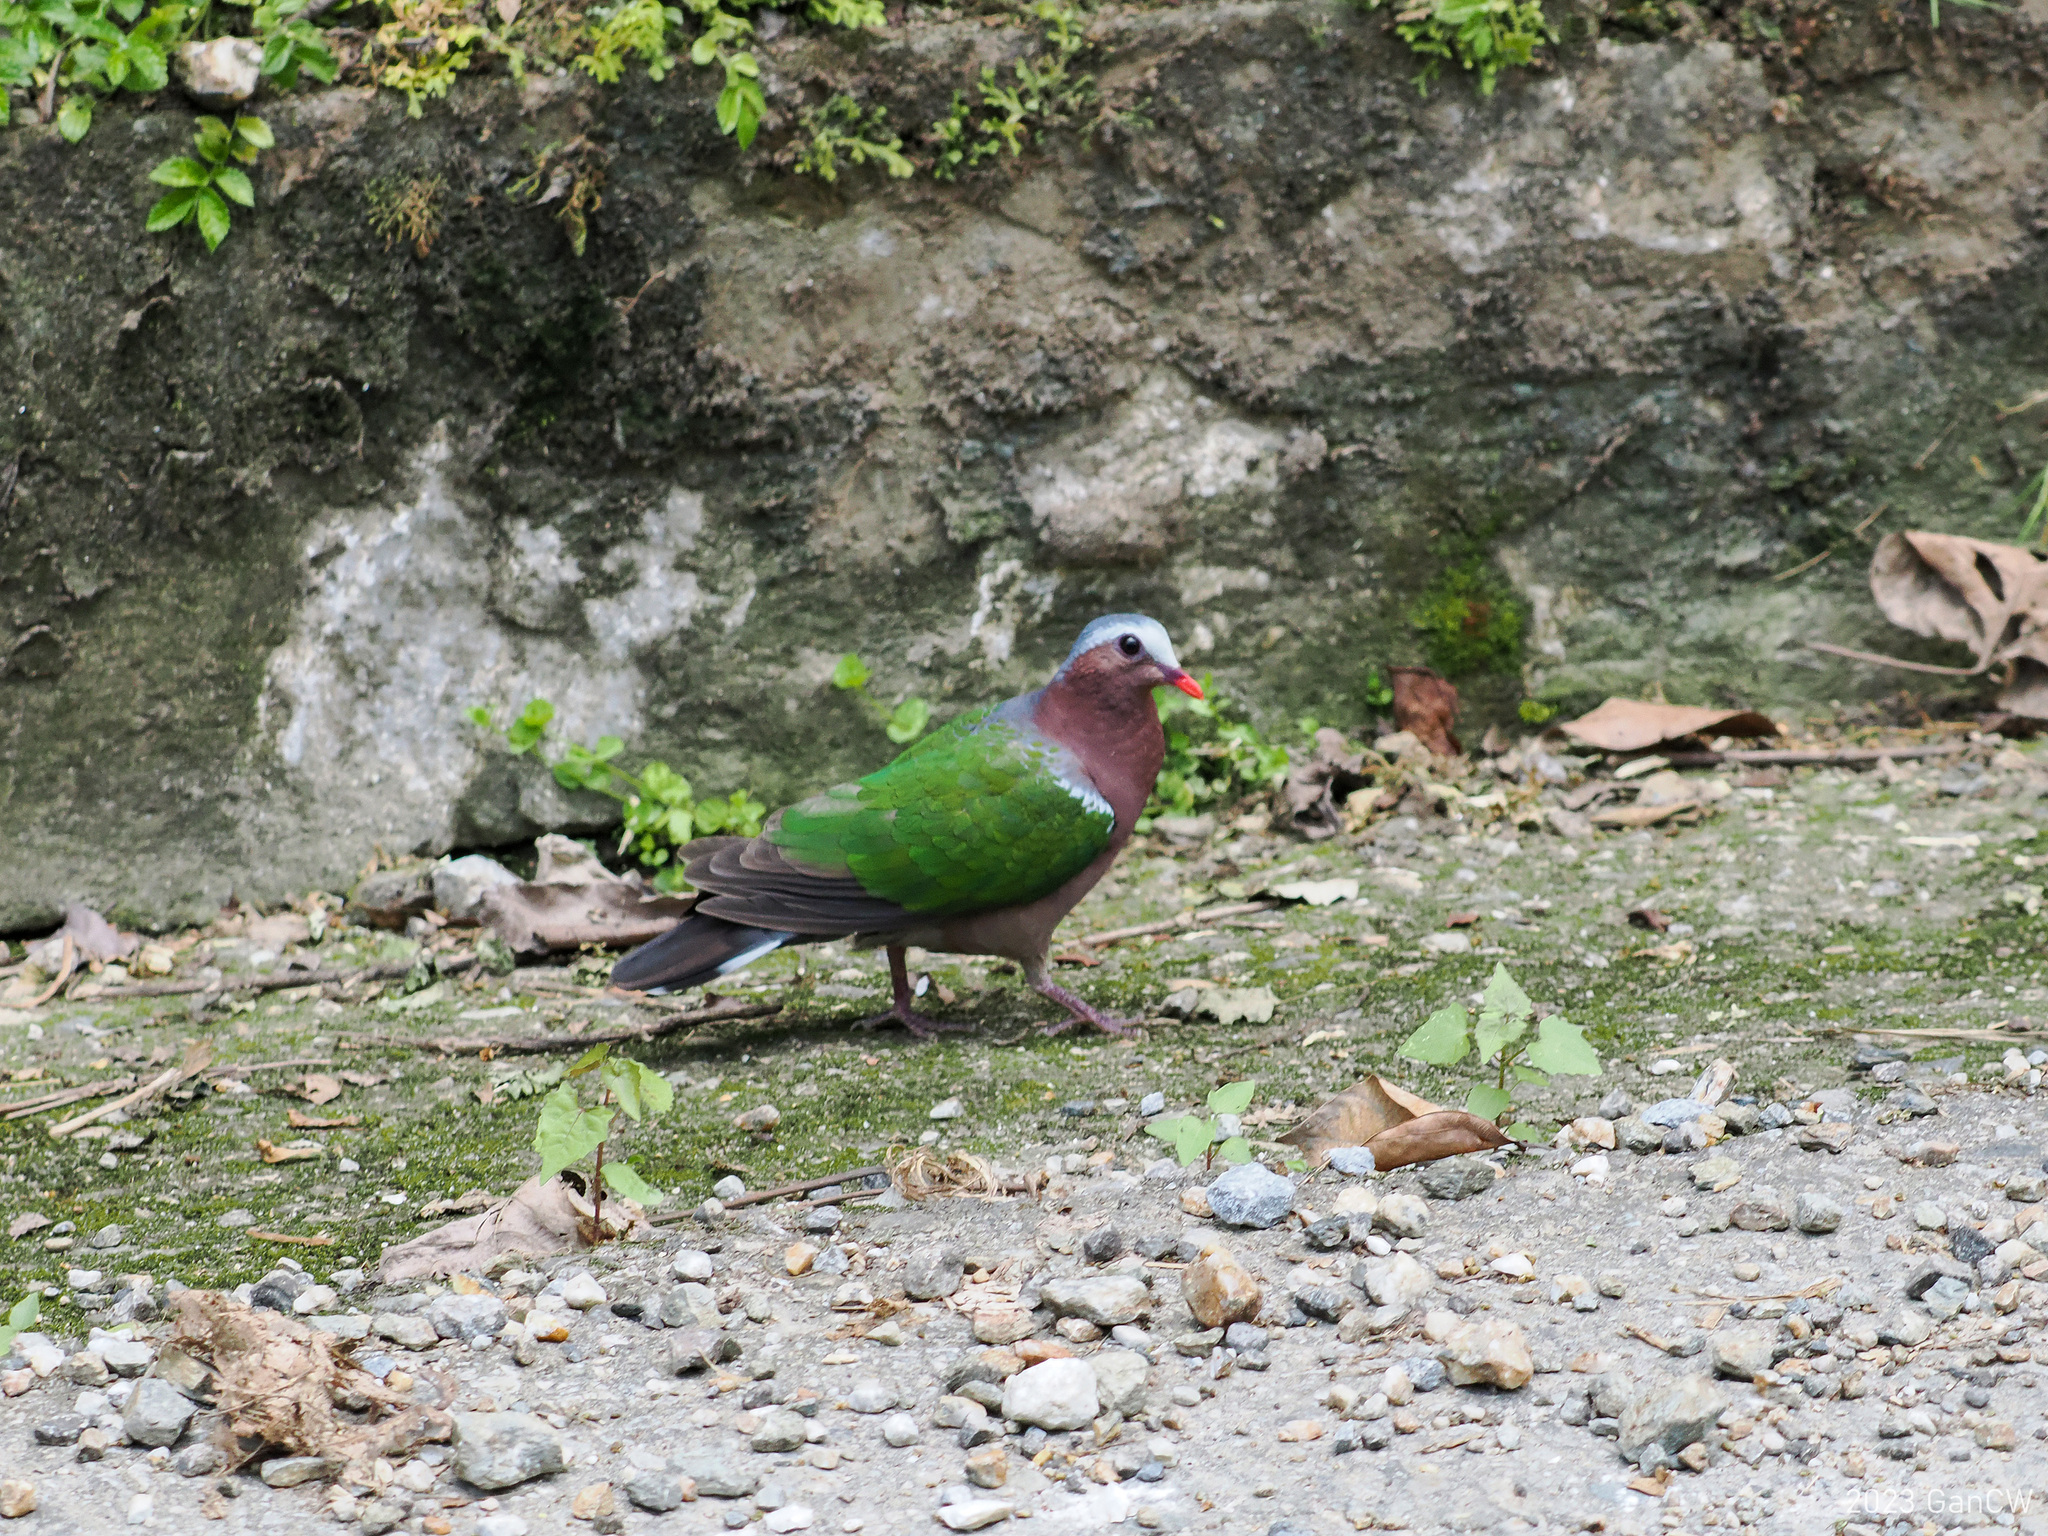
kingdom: Animalia
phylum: Chordata
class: Aves
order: Columbiformes
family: Columbidae
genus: Chalcophaps
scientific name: Chalcophaps indica
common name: Common emerald dove
